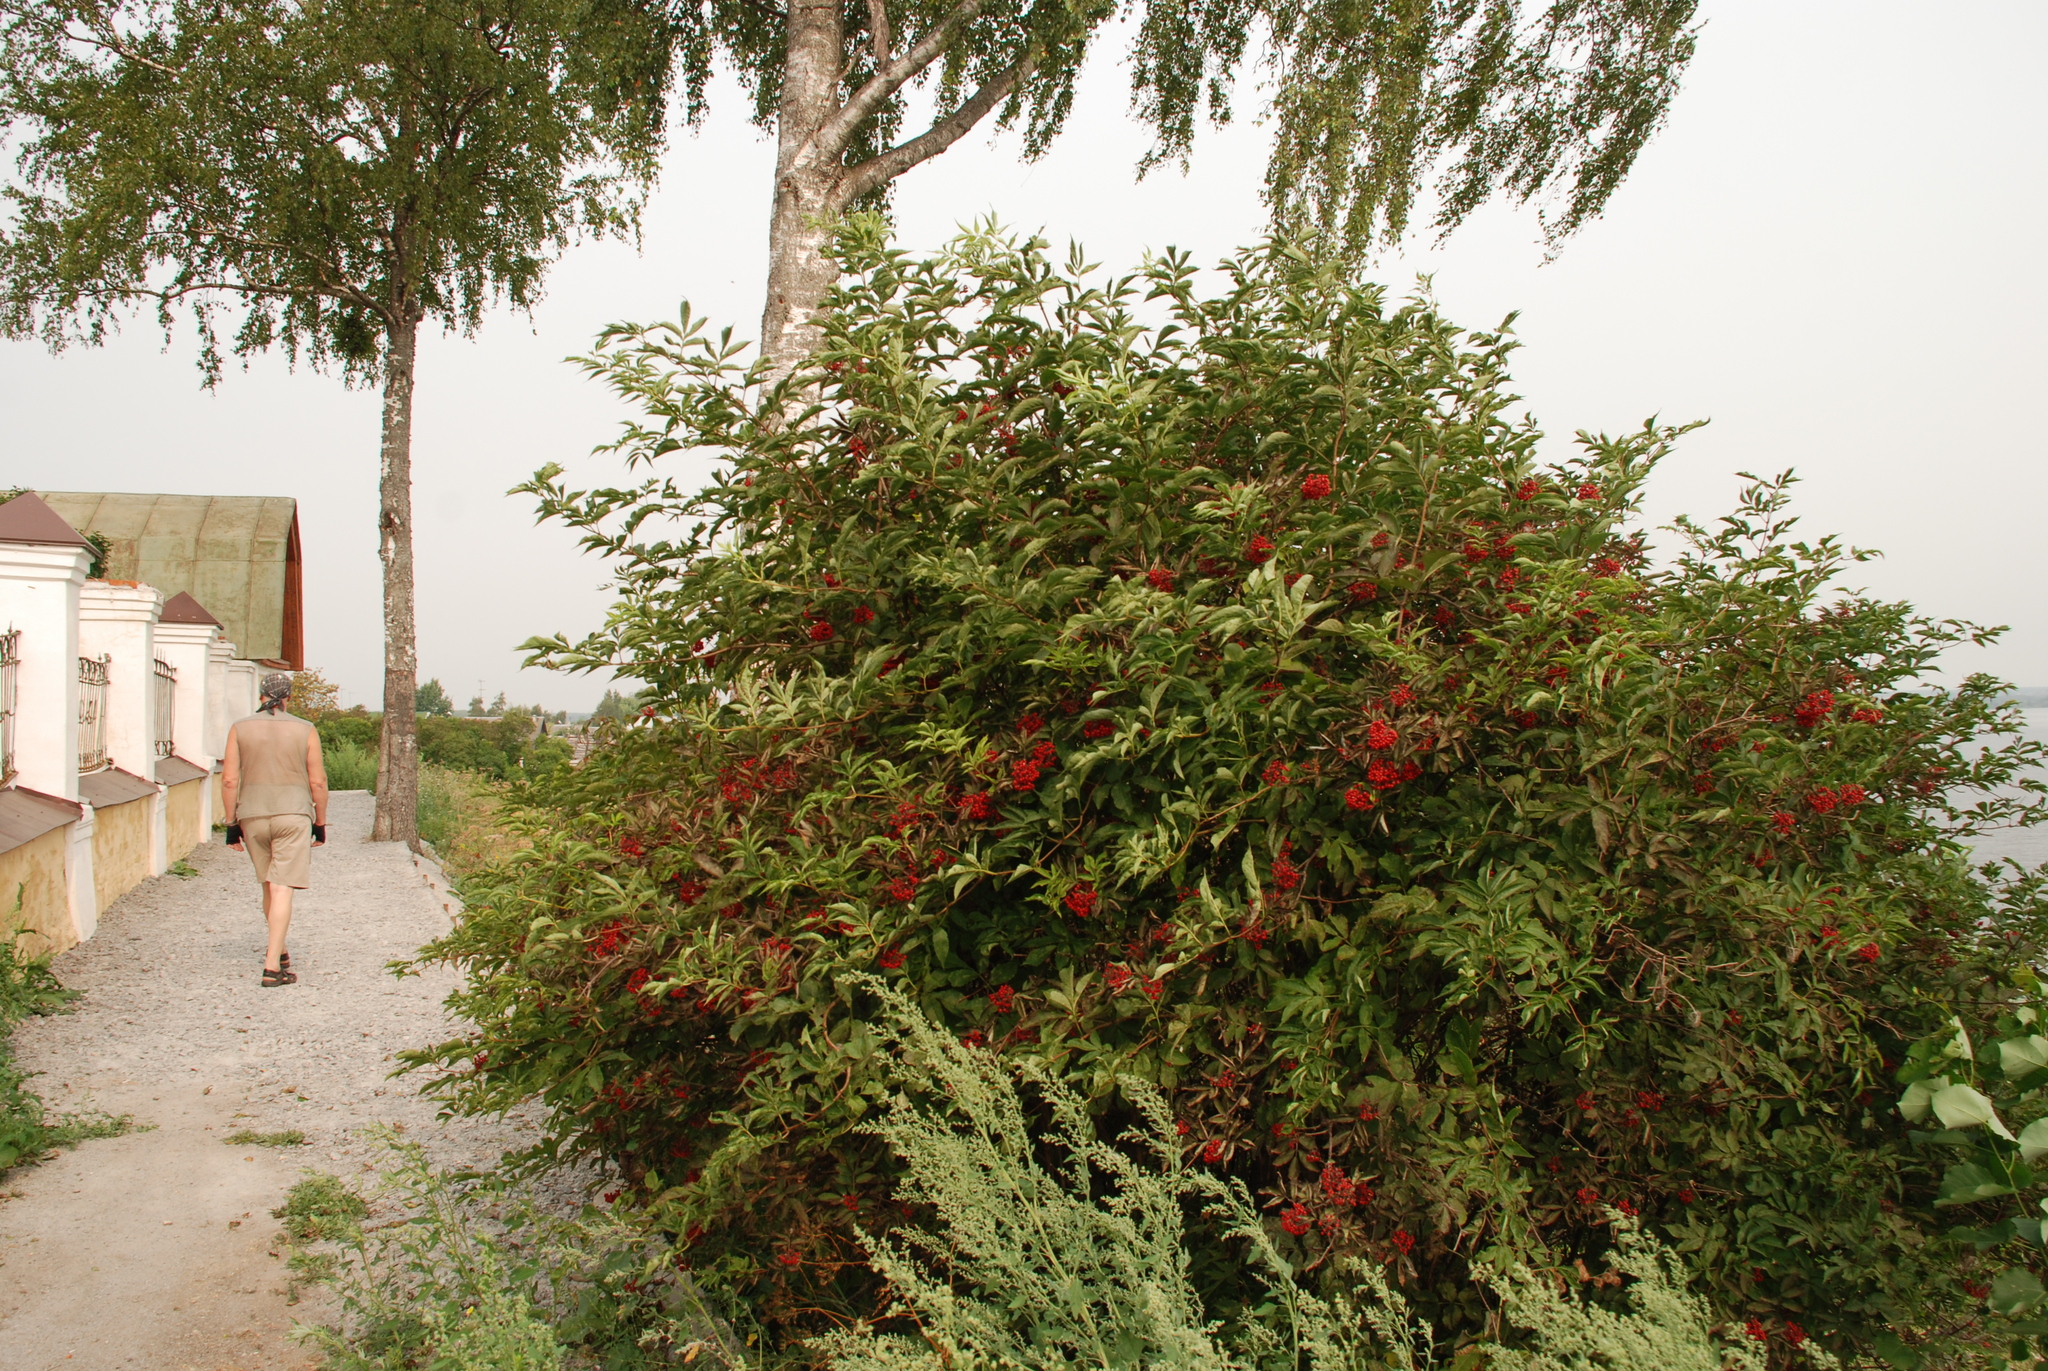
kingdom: Plantae
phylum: Tracheophyta
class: Magnoliopsida
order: Dipsacales
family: Viburnaceae
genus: Sambucus
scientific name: Sambucus racemosa
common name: Red-berried elder
